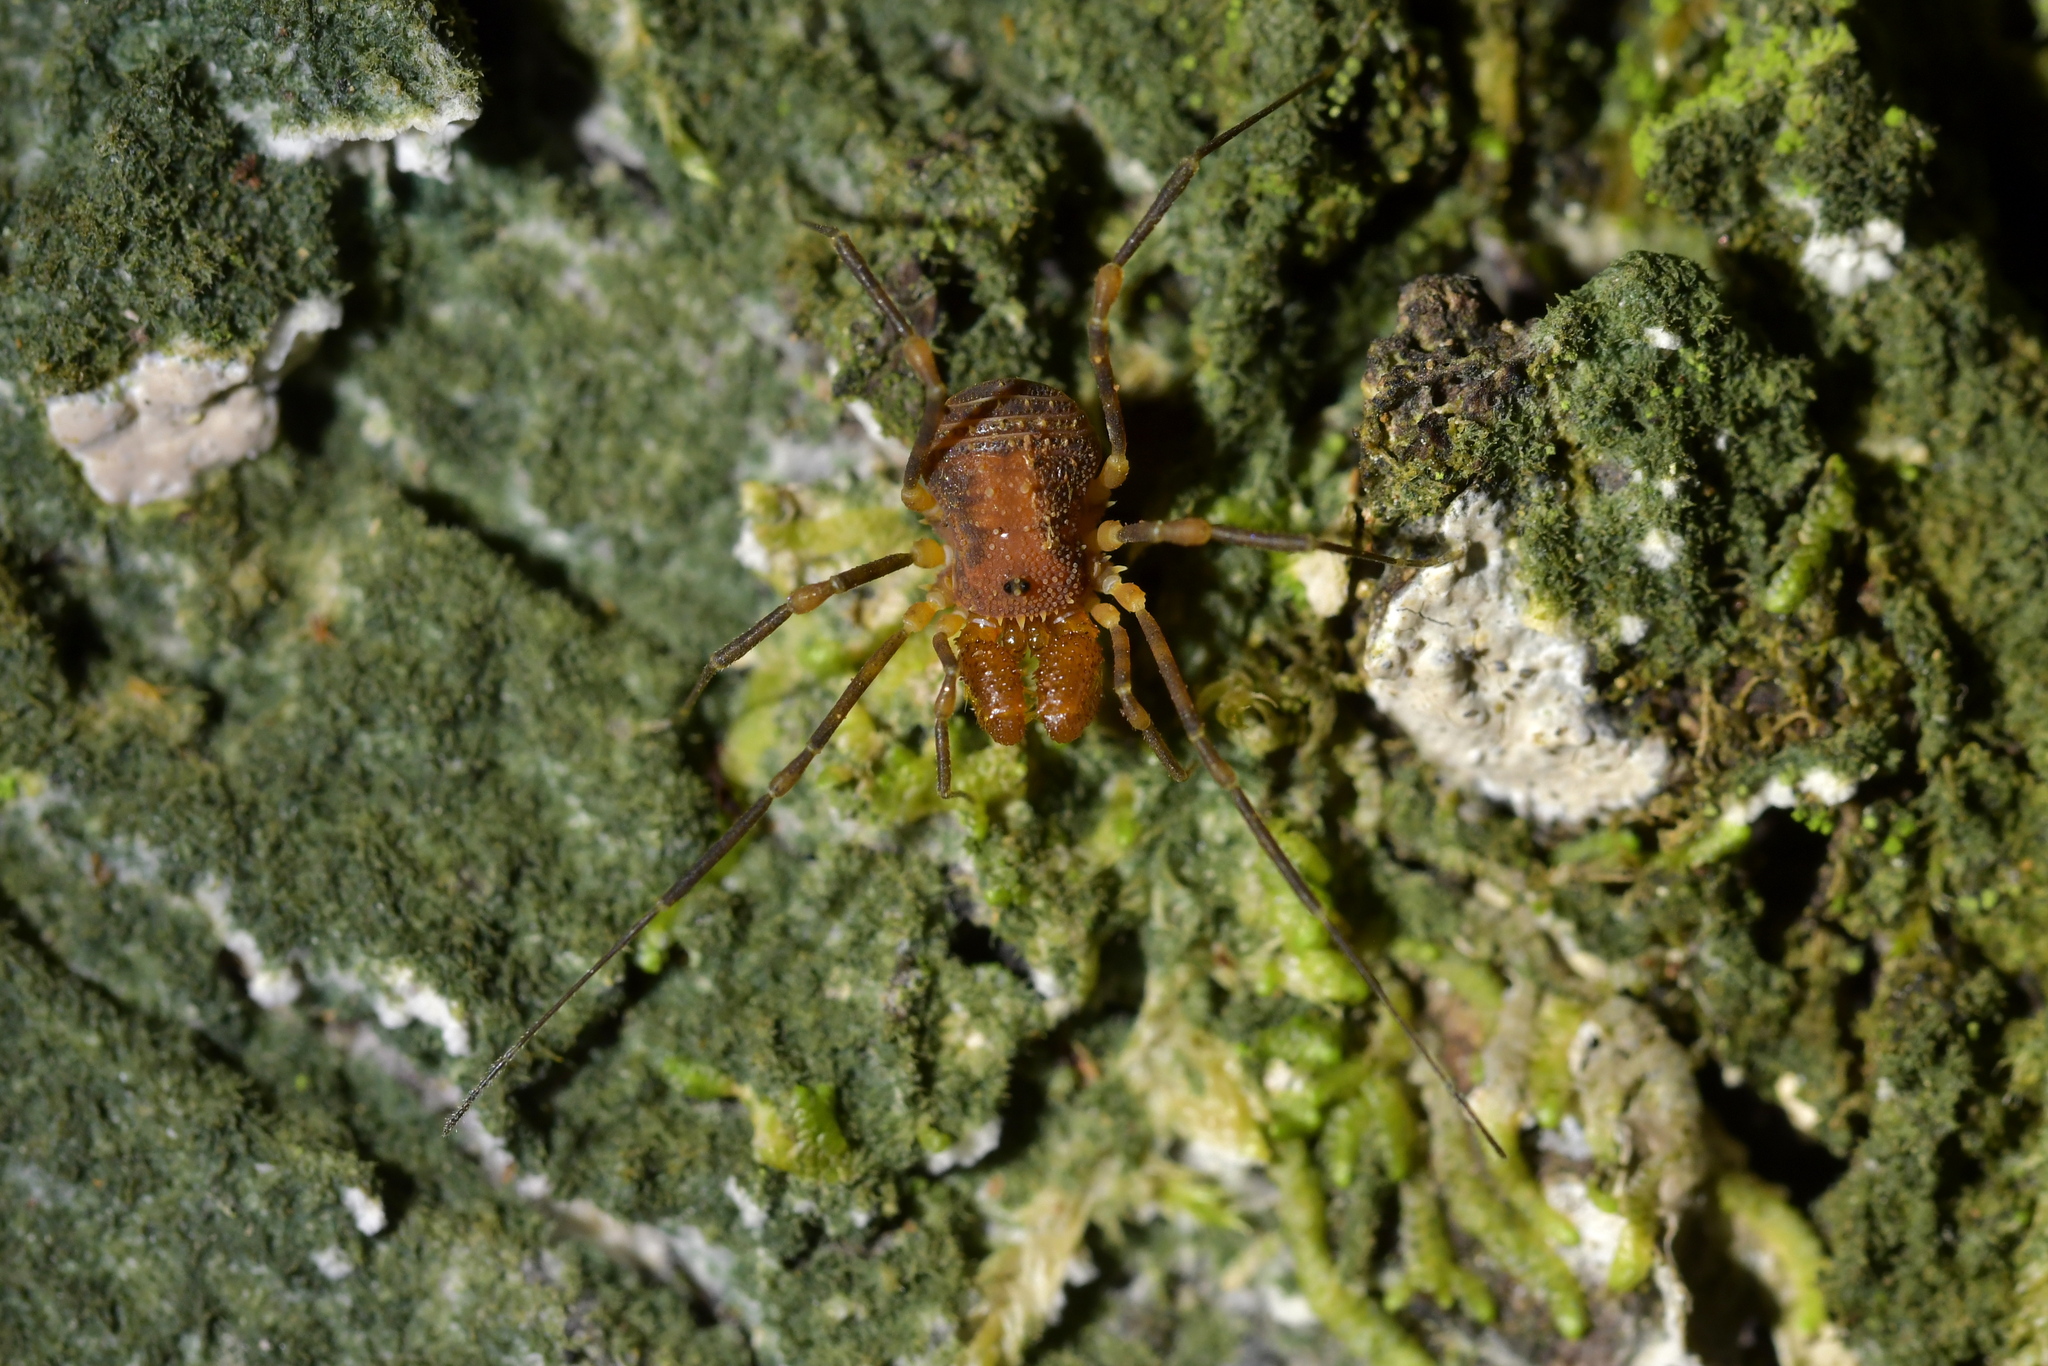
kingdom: Animalia
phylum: Arthropoda
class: Arachnida
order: Opiliones
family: Triaenonychidae
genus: Prasma
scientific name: Prasma tuberculata
